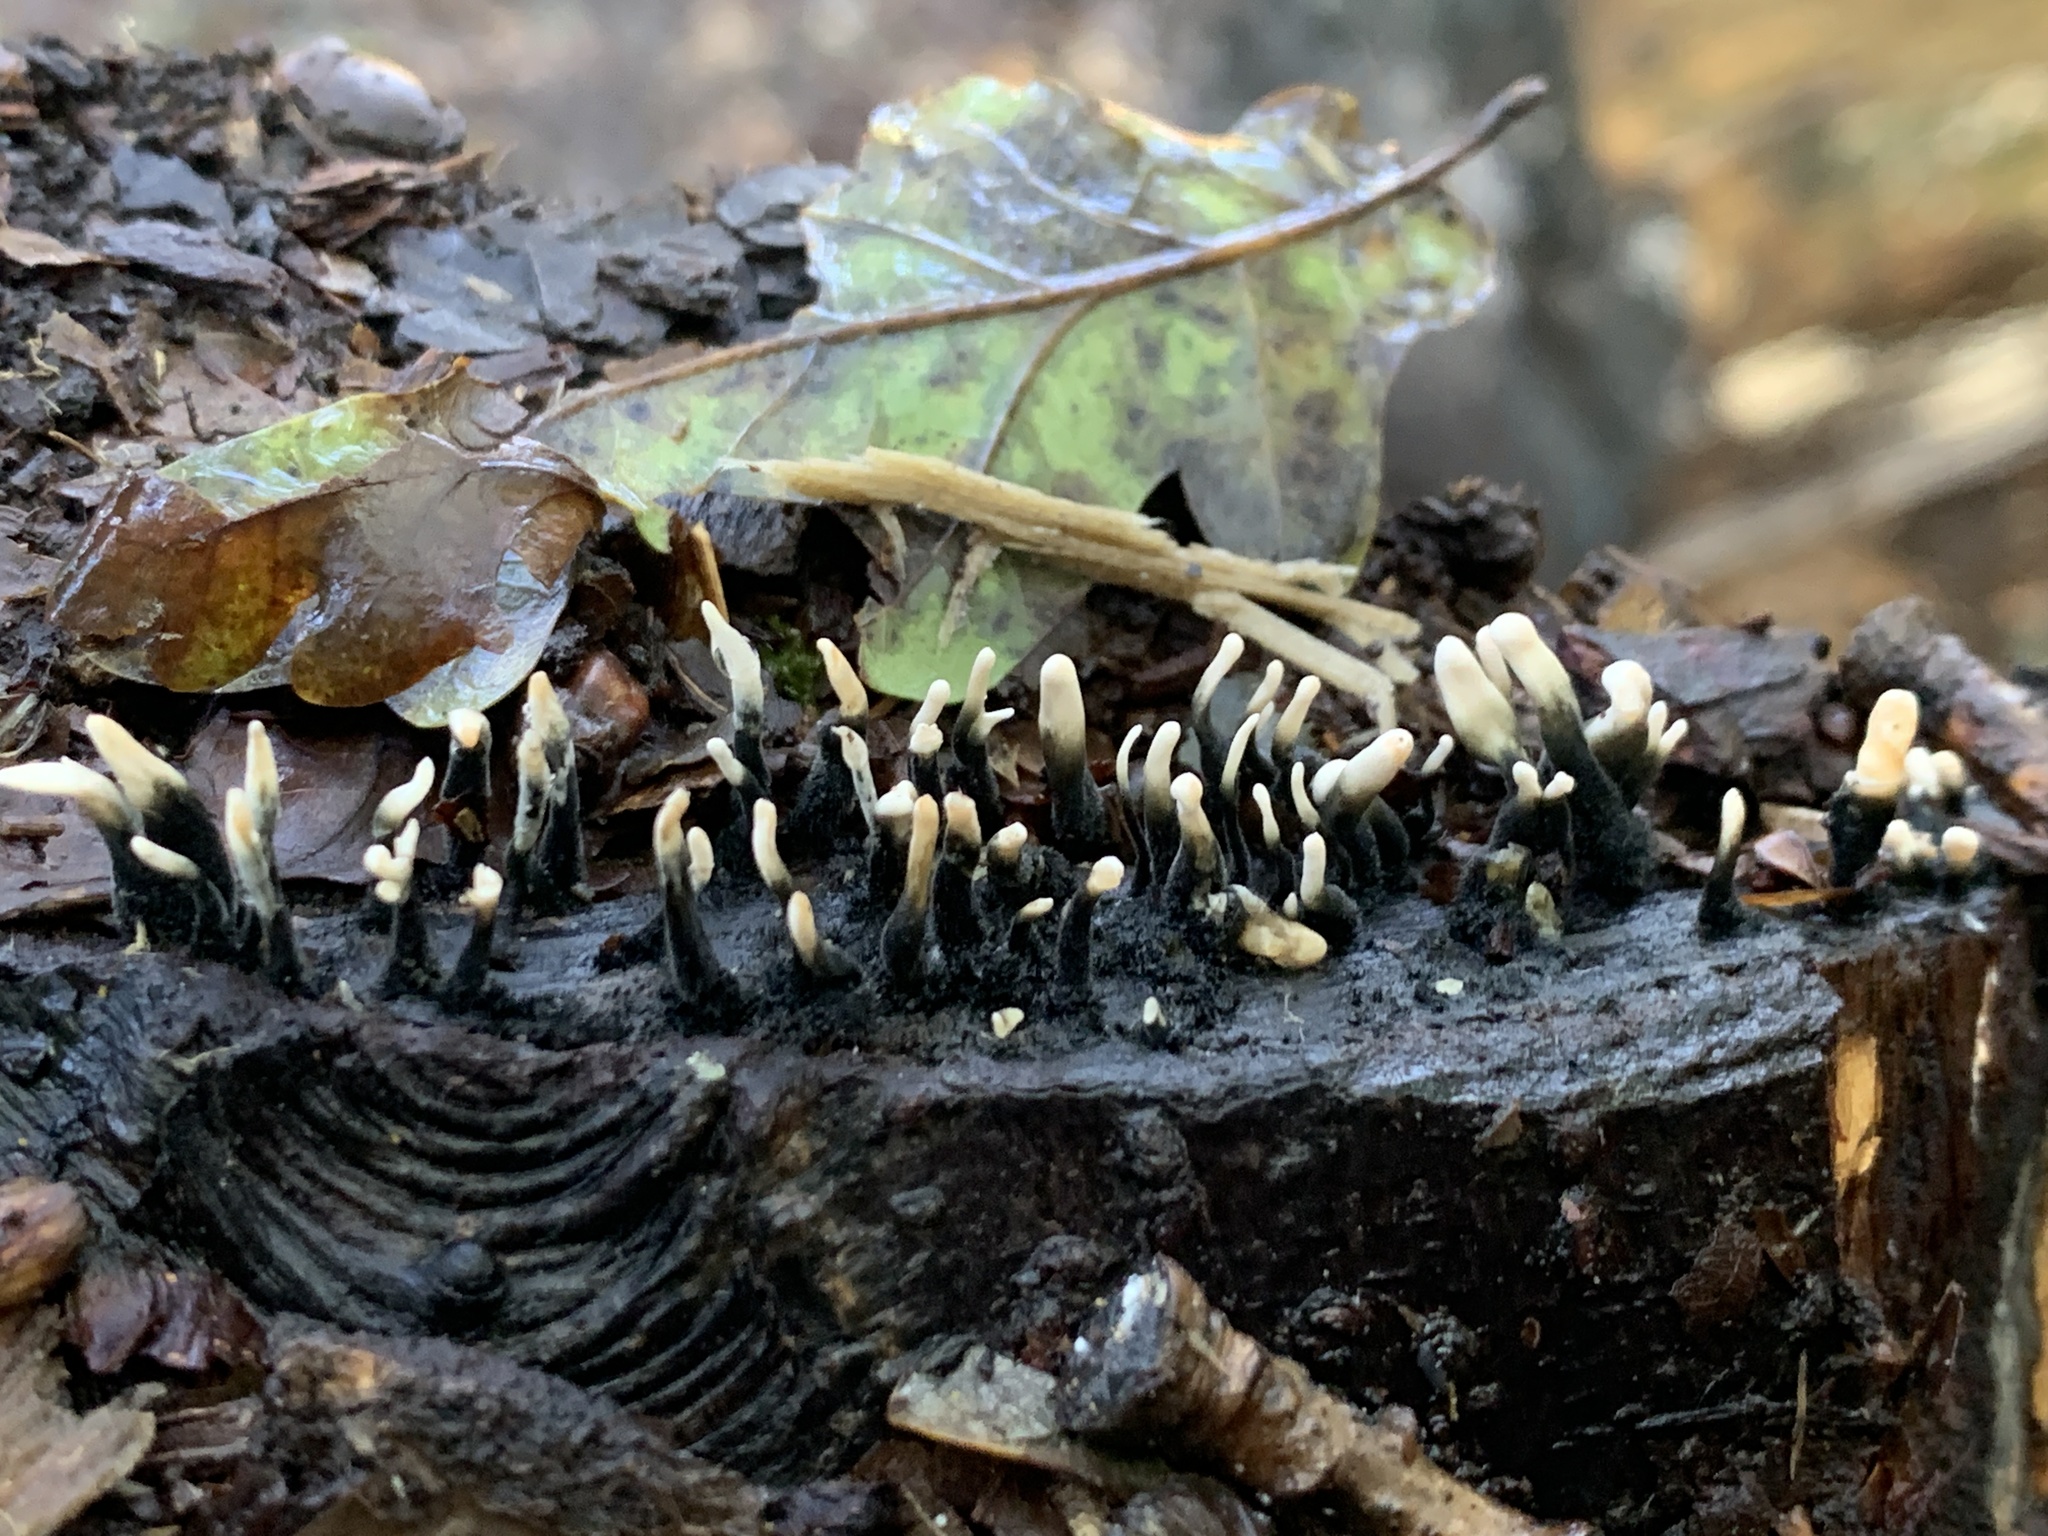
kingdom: Fungi
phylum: Ascomycota
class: Sordariomycetes
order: Xylariales
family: Xylariaceae
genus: Xylaria
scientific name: Xylaria hypoxylon
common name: Candle-snuff fungus
